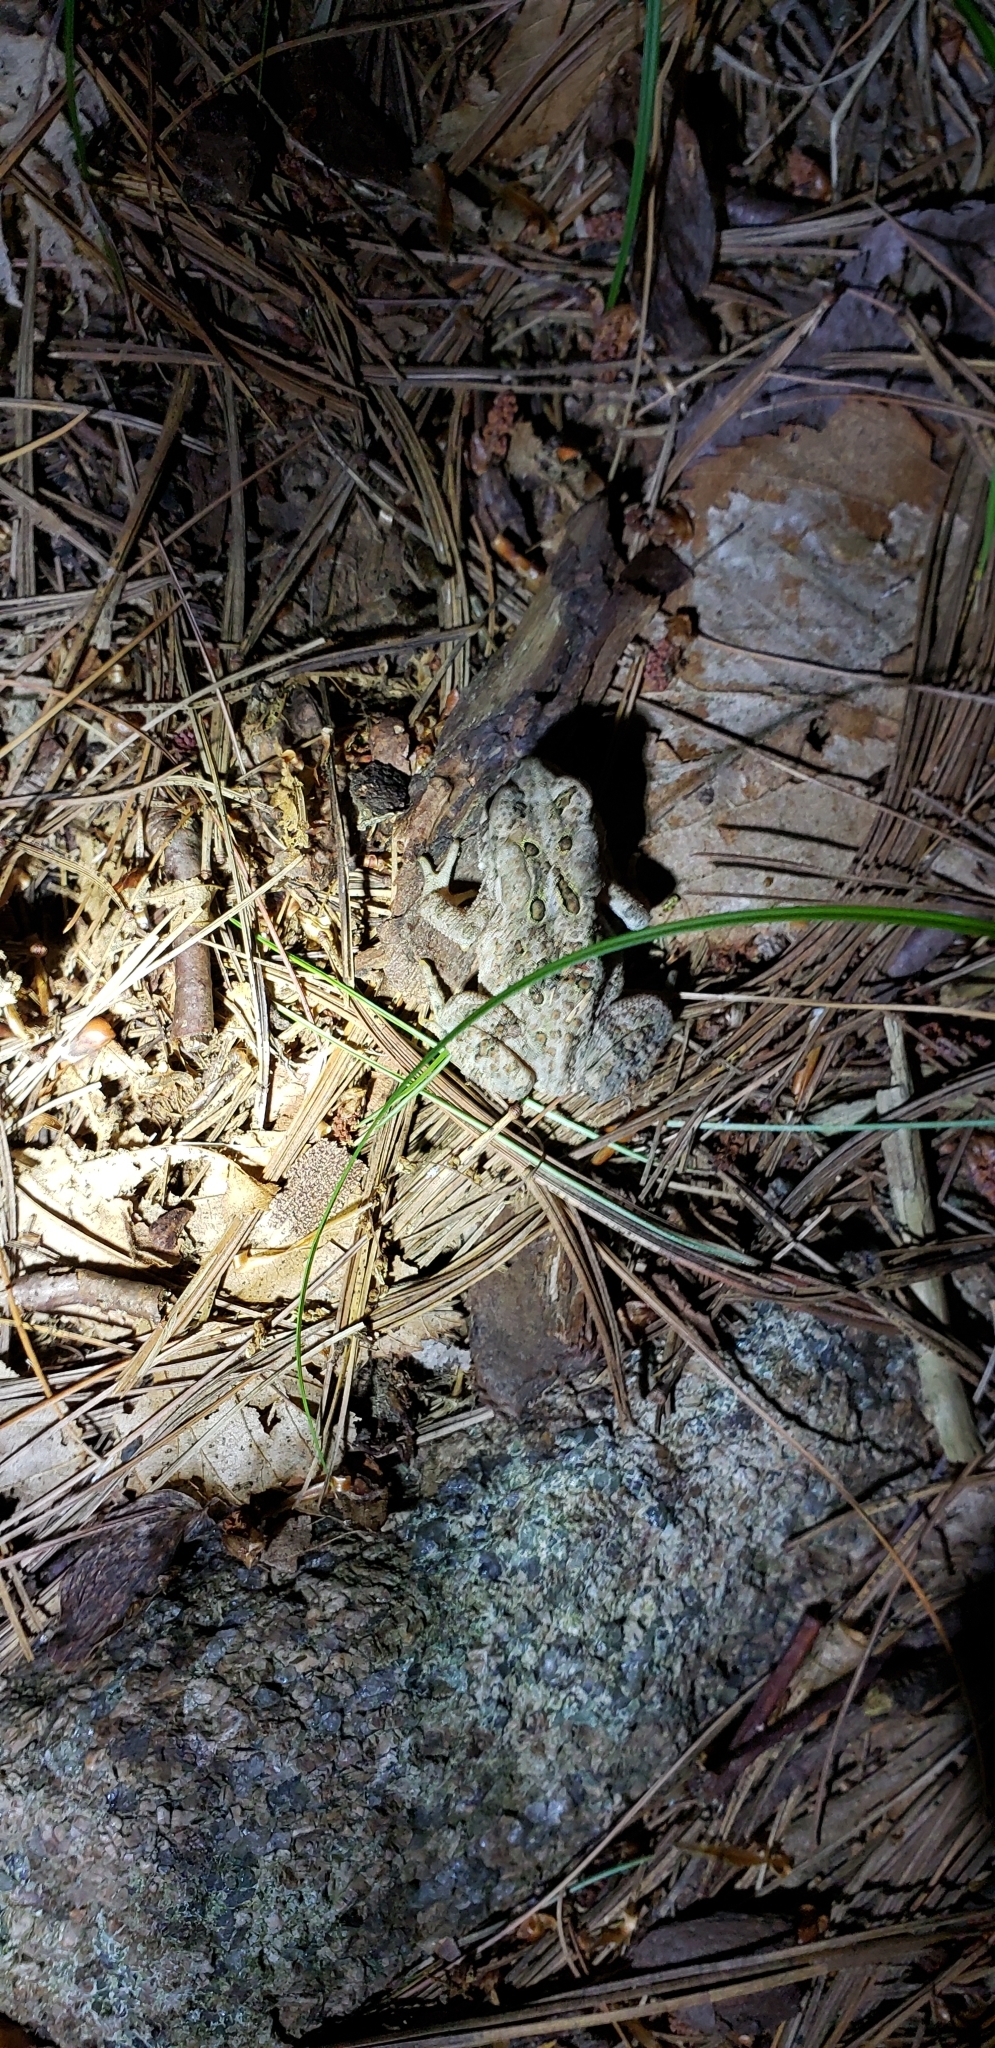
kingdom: Animalia
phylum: Chordata
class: Amphibia
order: Anura
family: Bufonidae
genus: Anaxyrus
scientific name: Anaxyrus americanus
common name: American toad
